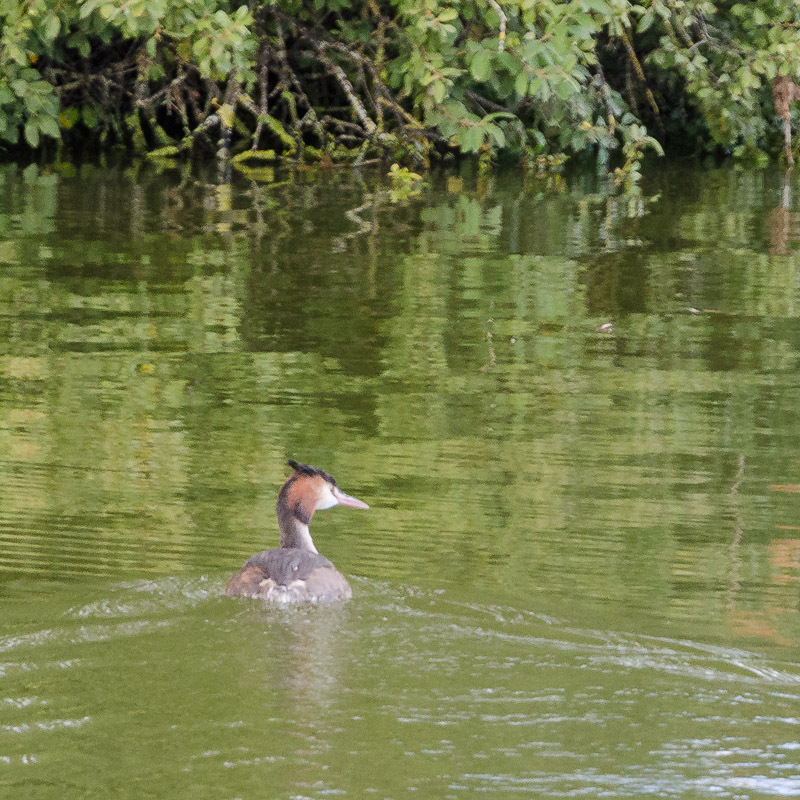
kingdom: Animalia
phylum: Chordata
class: Aves
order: Podicipediformes
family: Podicipedidae
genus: Podiceps
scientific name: Podiceps cristatus
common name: Great crested grebe
